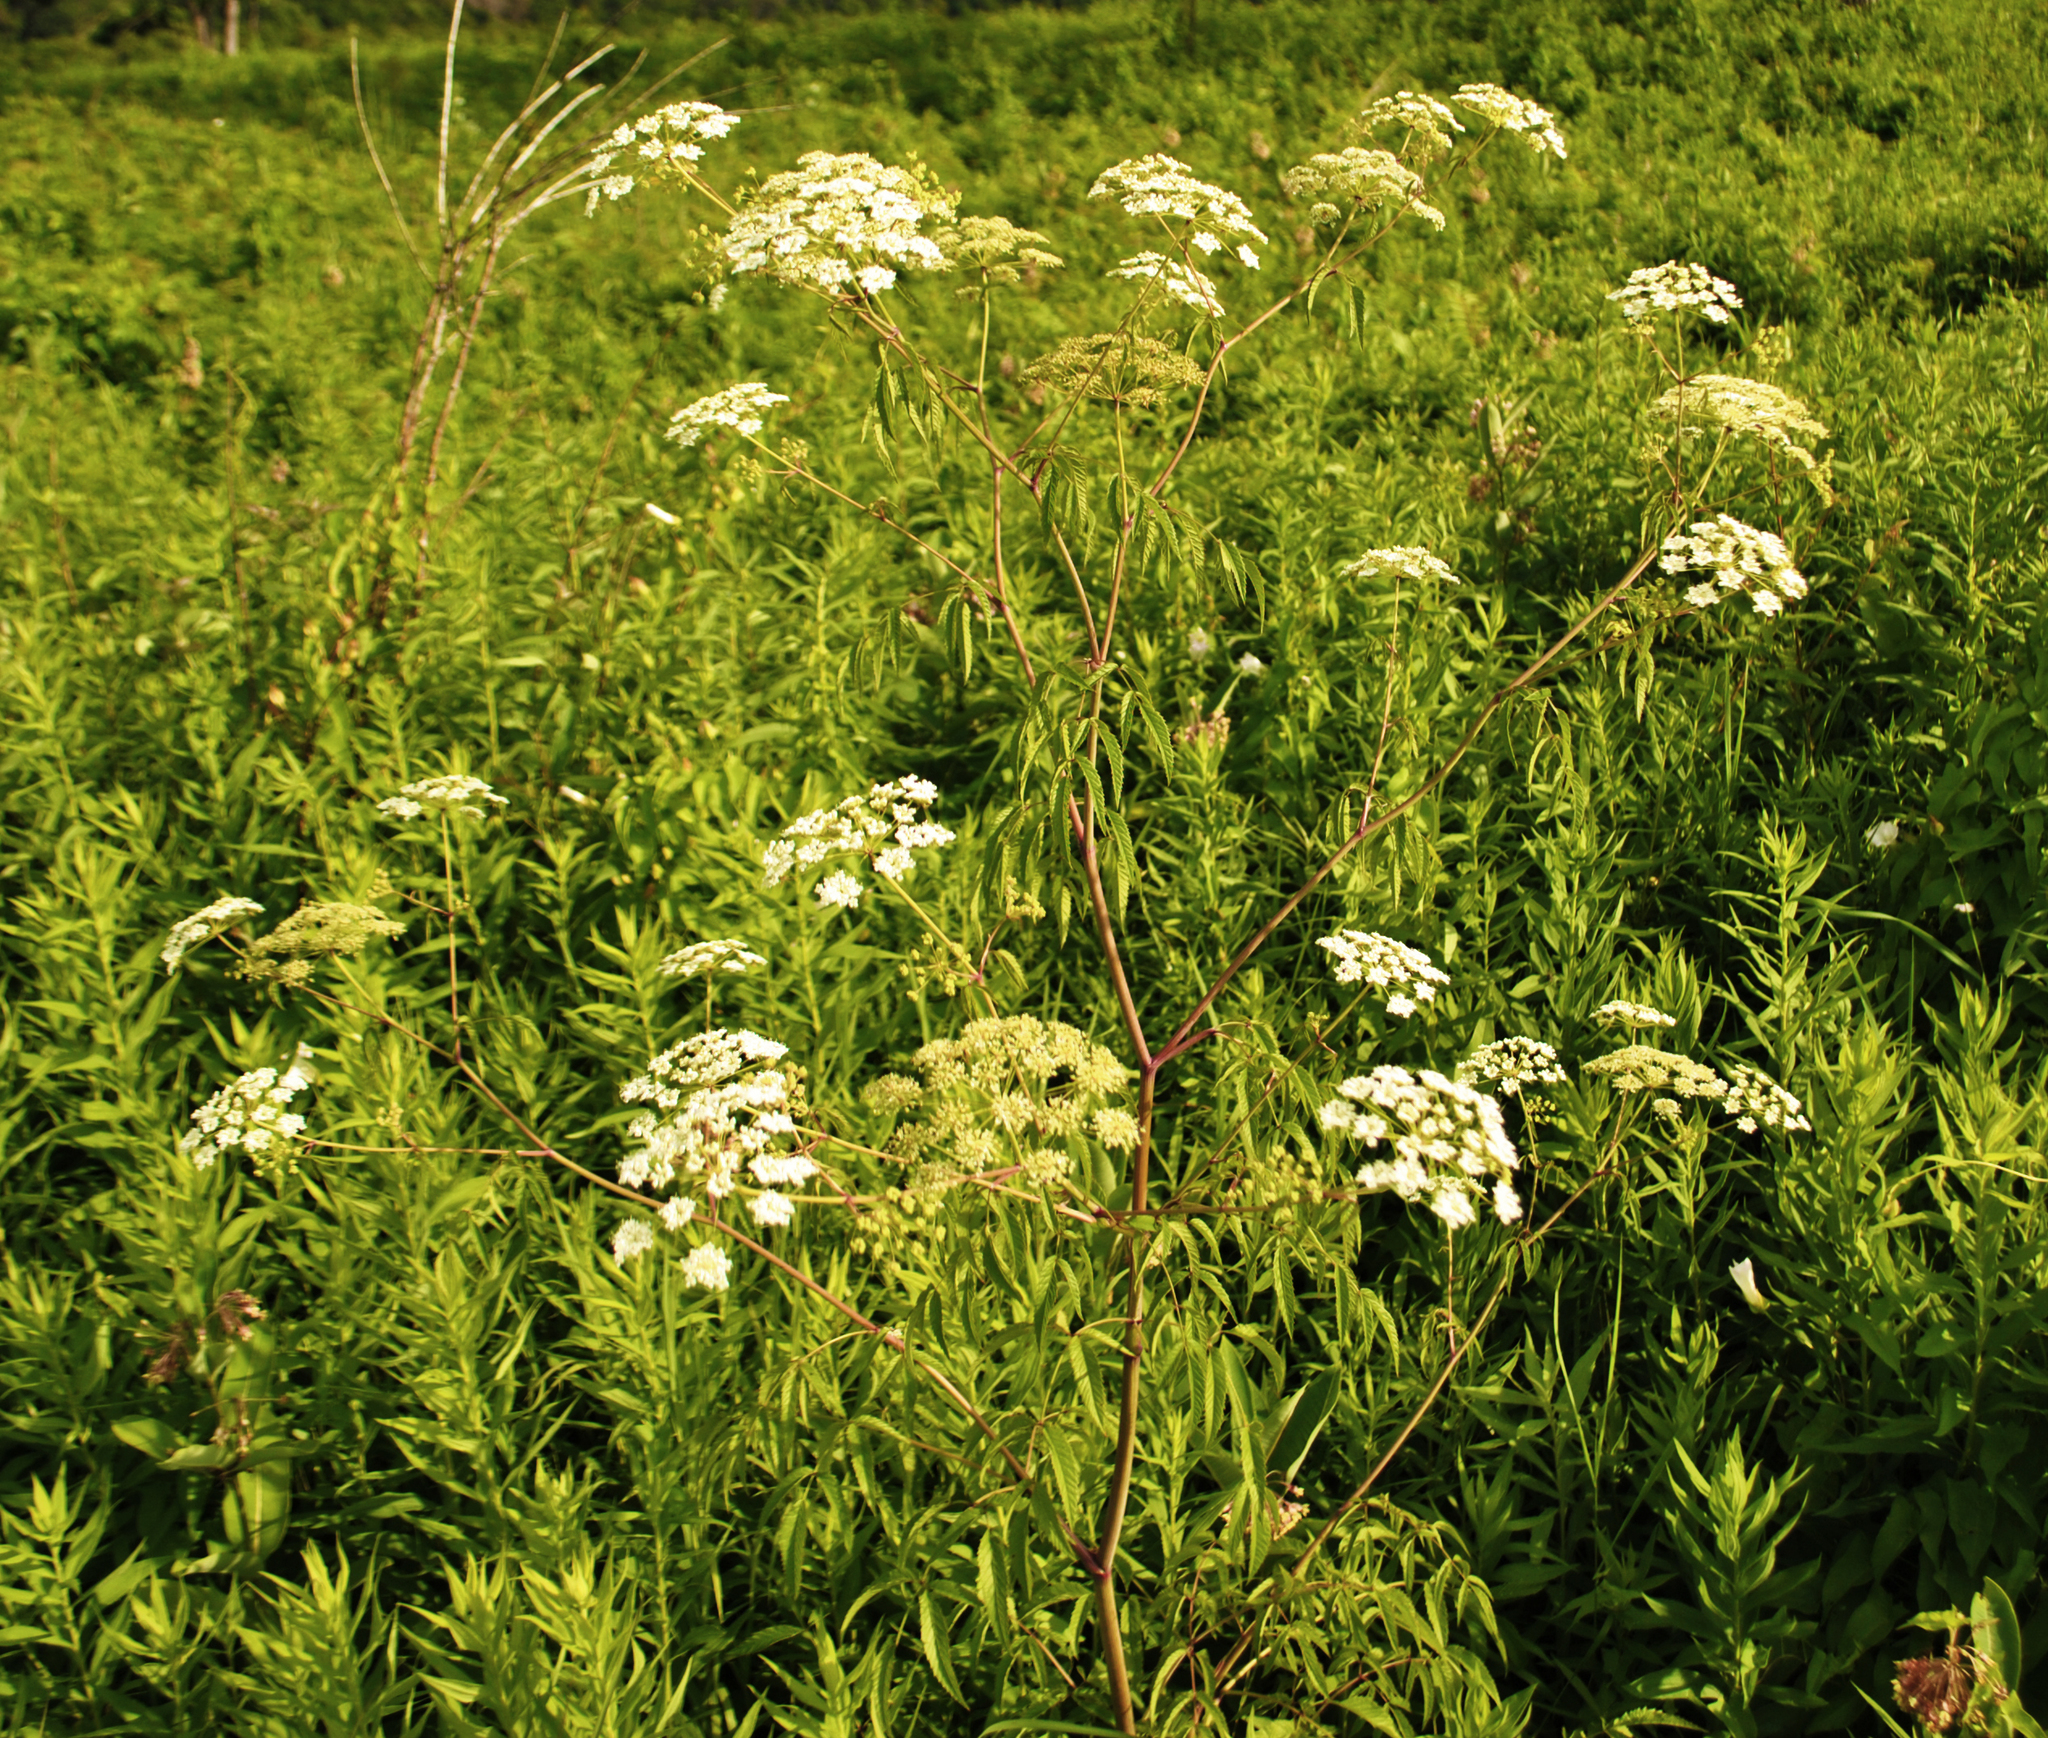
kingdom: Plantae
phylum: Tracheophyta
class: Magnoliopsida
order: Apiales
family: Apiaceae
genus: Cicuta
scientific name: Cicuta maculata
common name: Spotted cowbane
